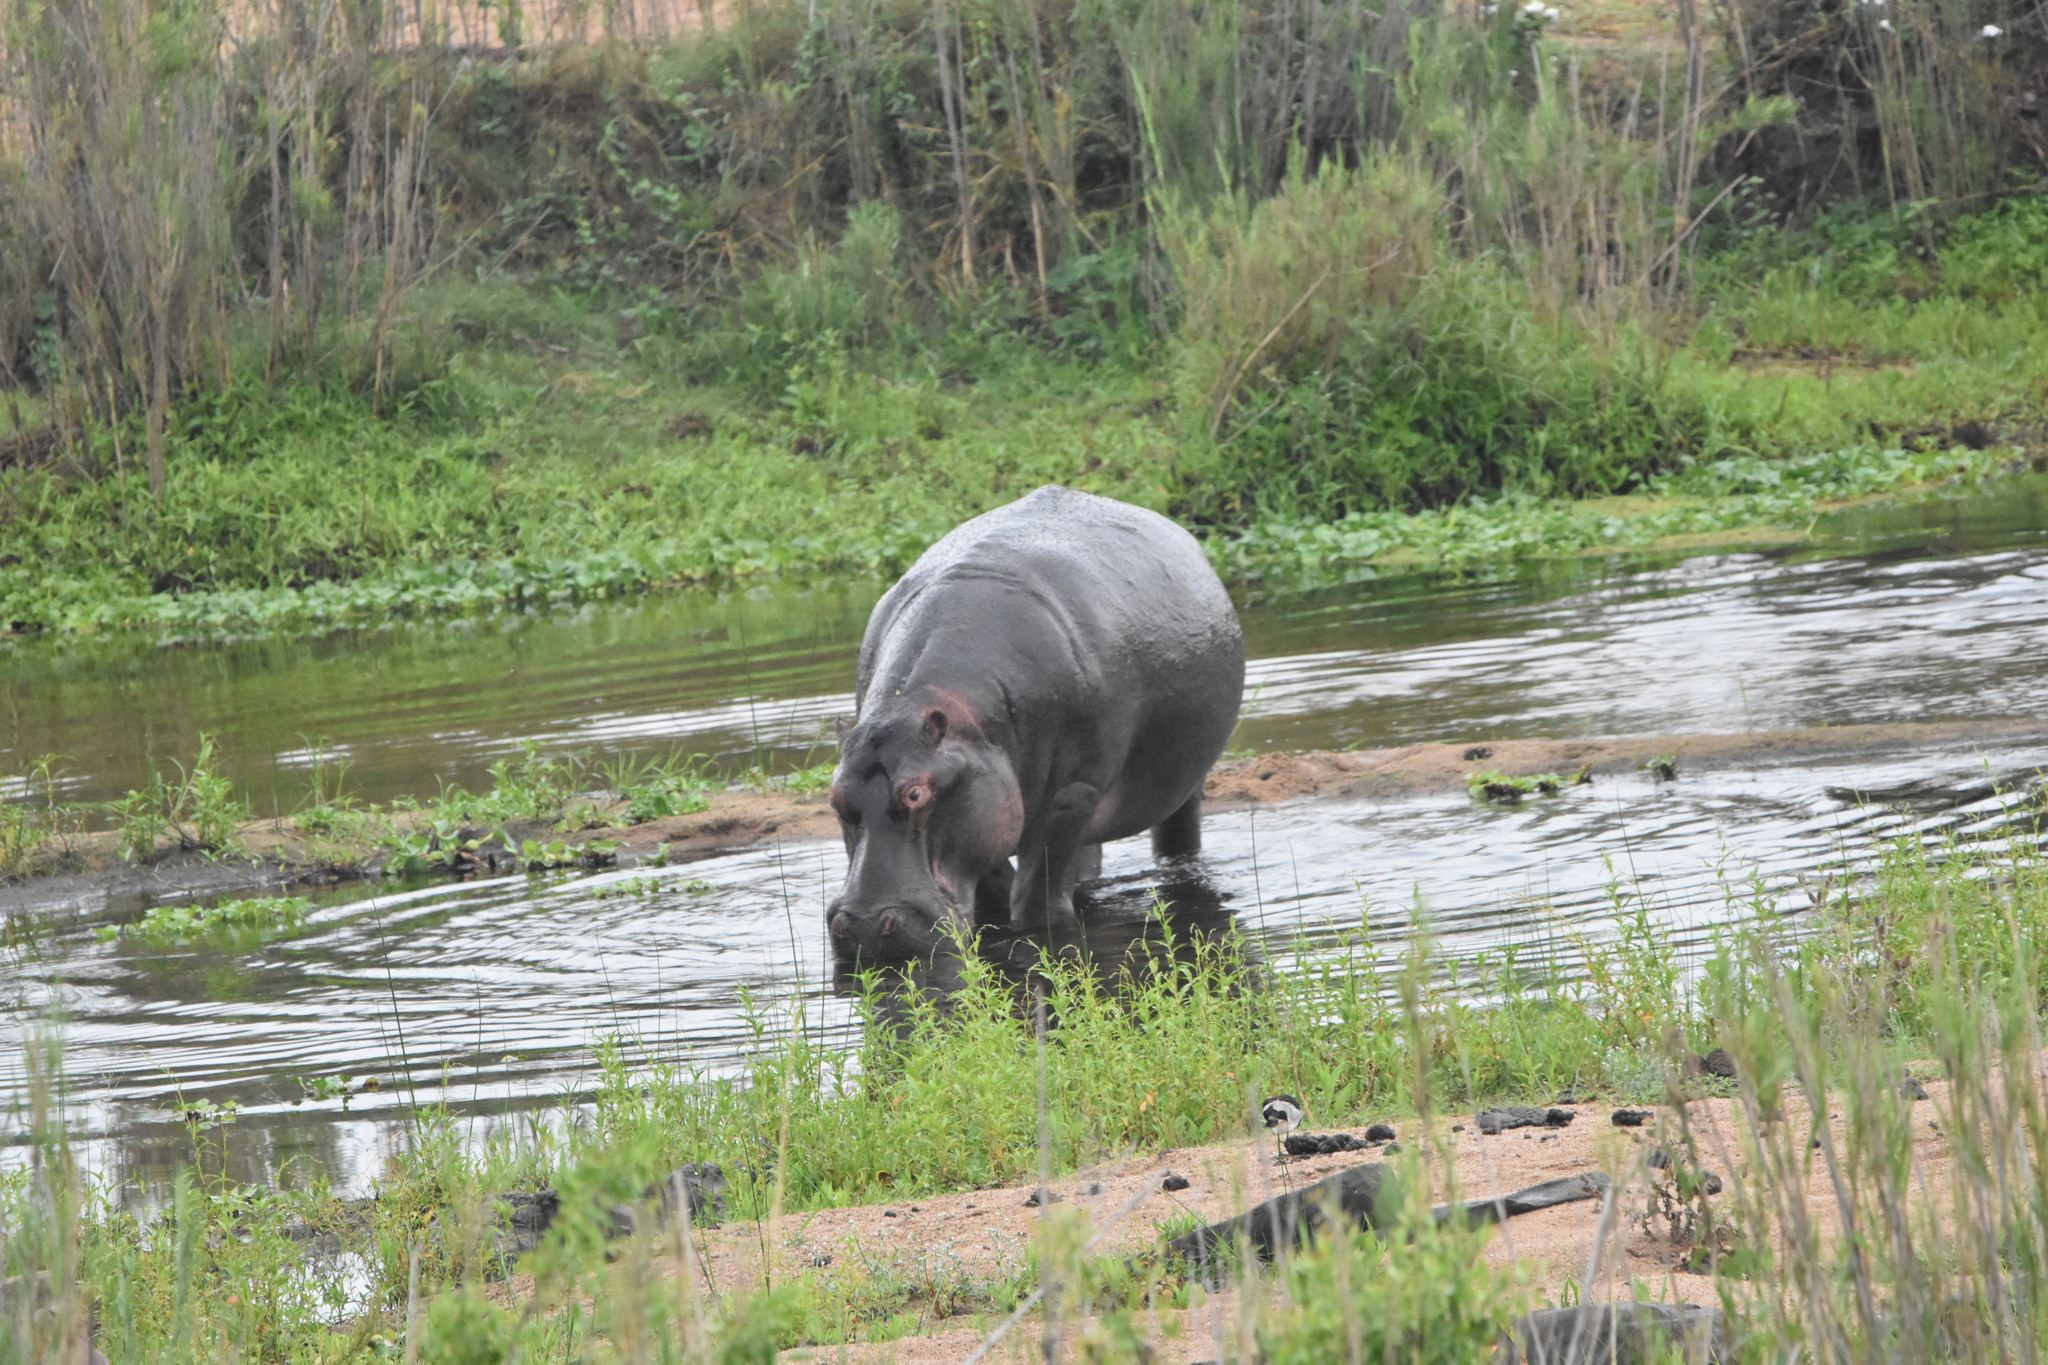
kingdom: Animalia
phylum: Chordata
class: Mammalia
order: Artiodactyla
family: Hippopotamidae
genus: Hippopotamus
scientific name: Hippopotamus amphibius
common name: Common hippopotamus
